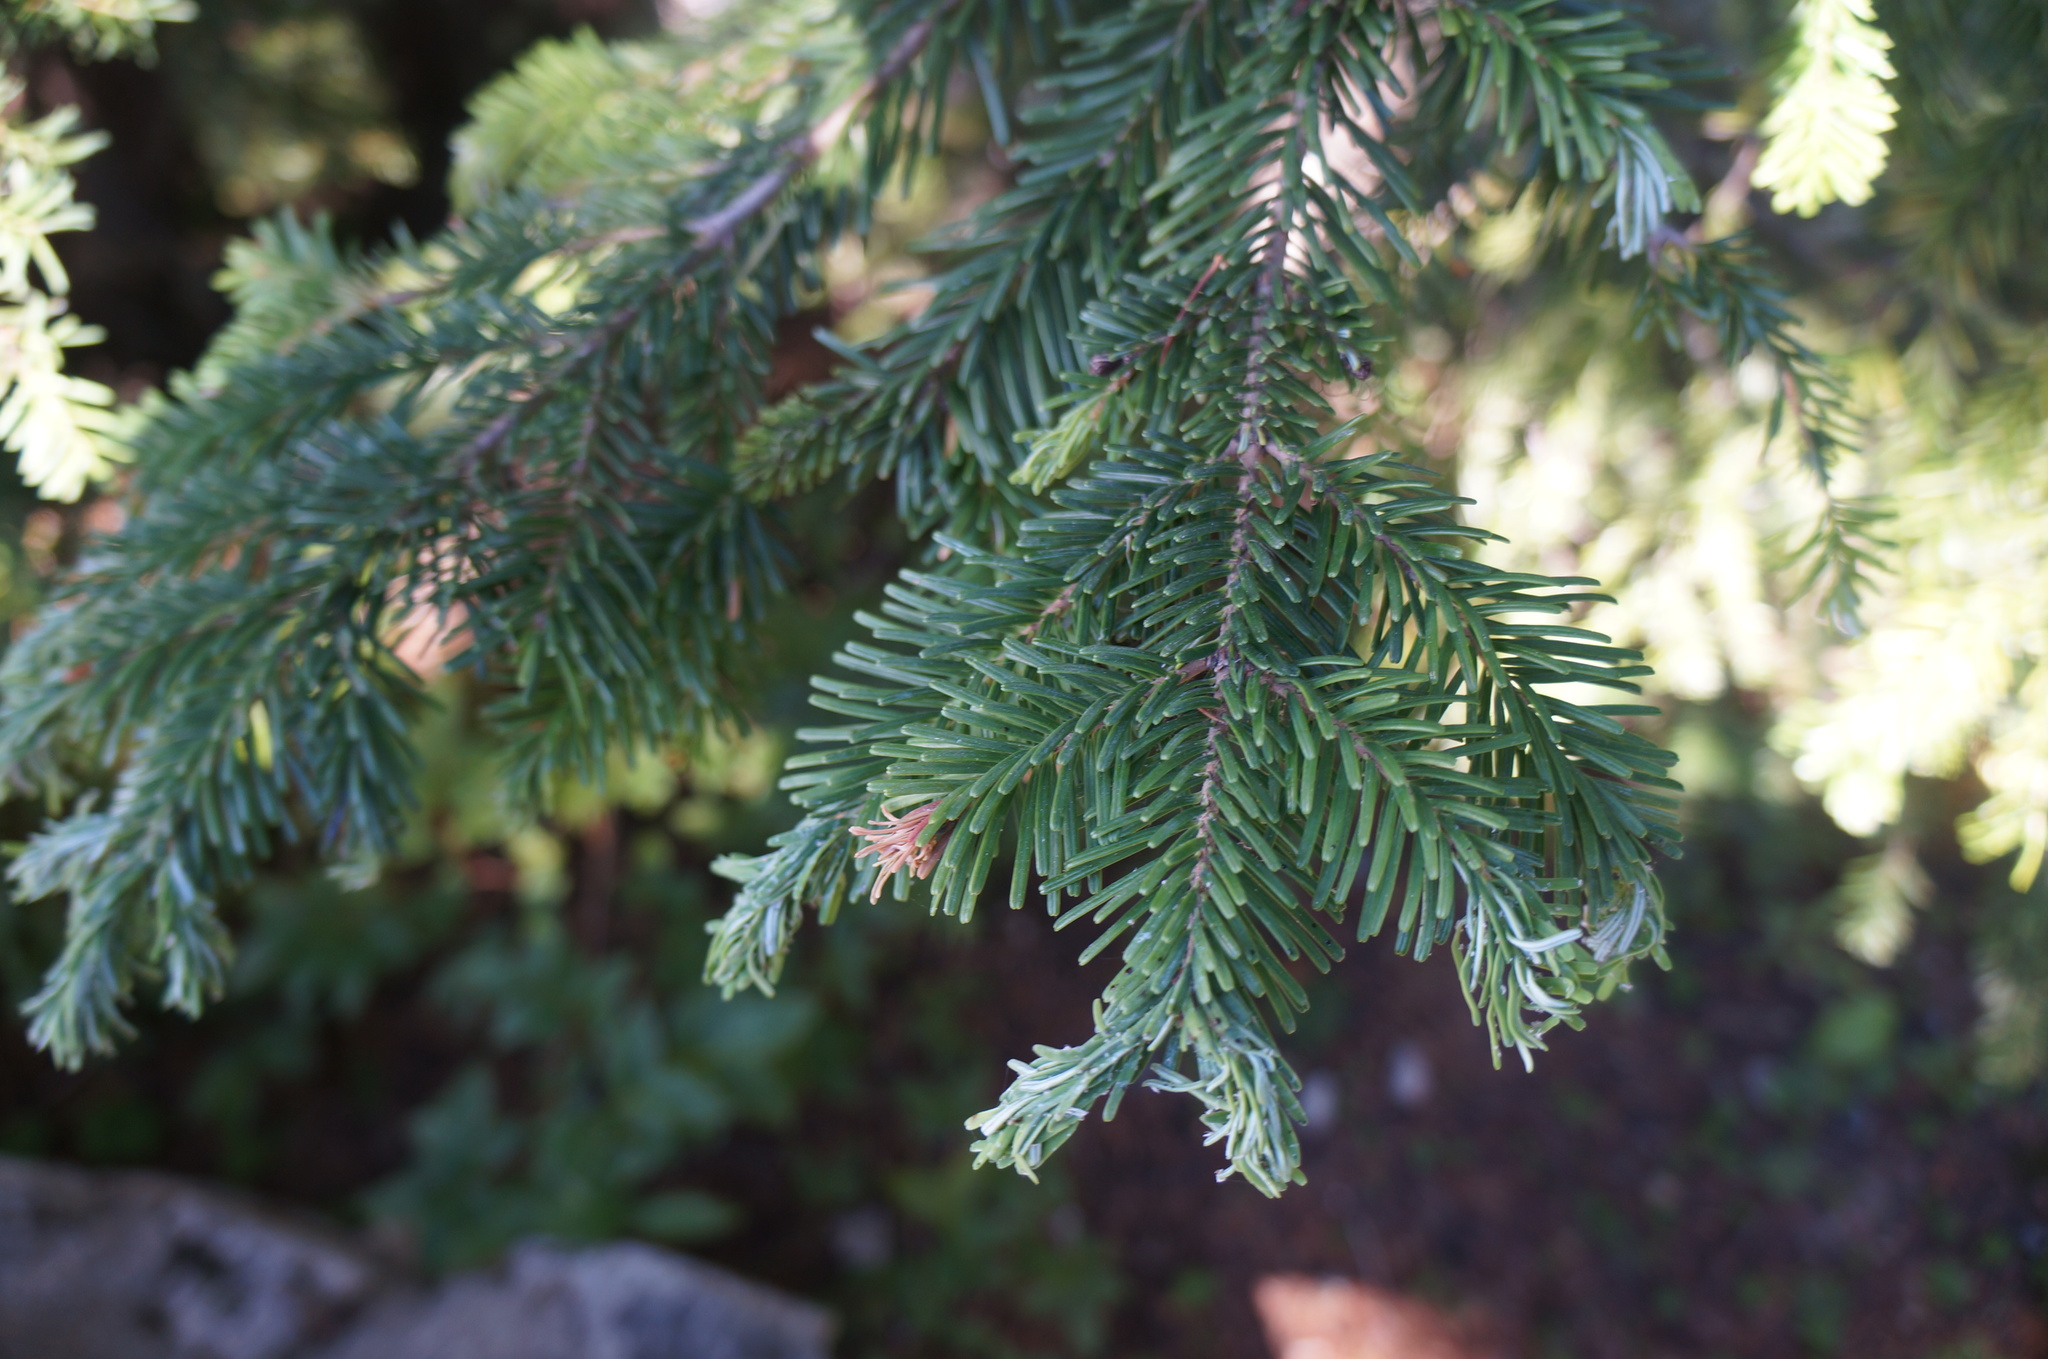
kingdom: Plantae
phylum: Tracheophyta
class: Pinopsida
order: Pinales
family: Pinaceae
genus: Abies
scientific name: Abies amabilis
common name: Pacific silver fir
